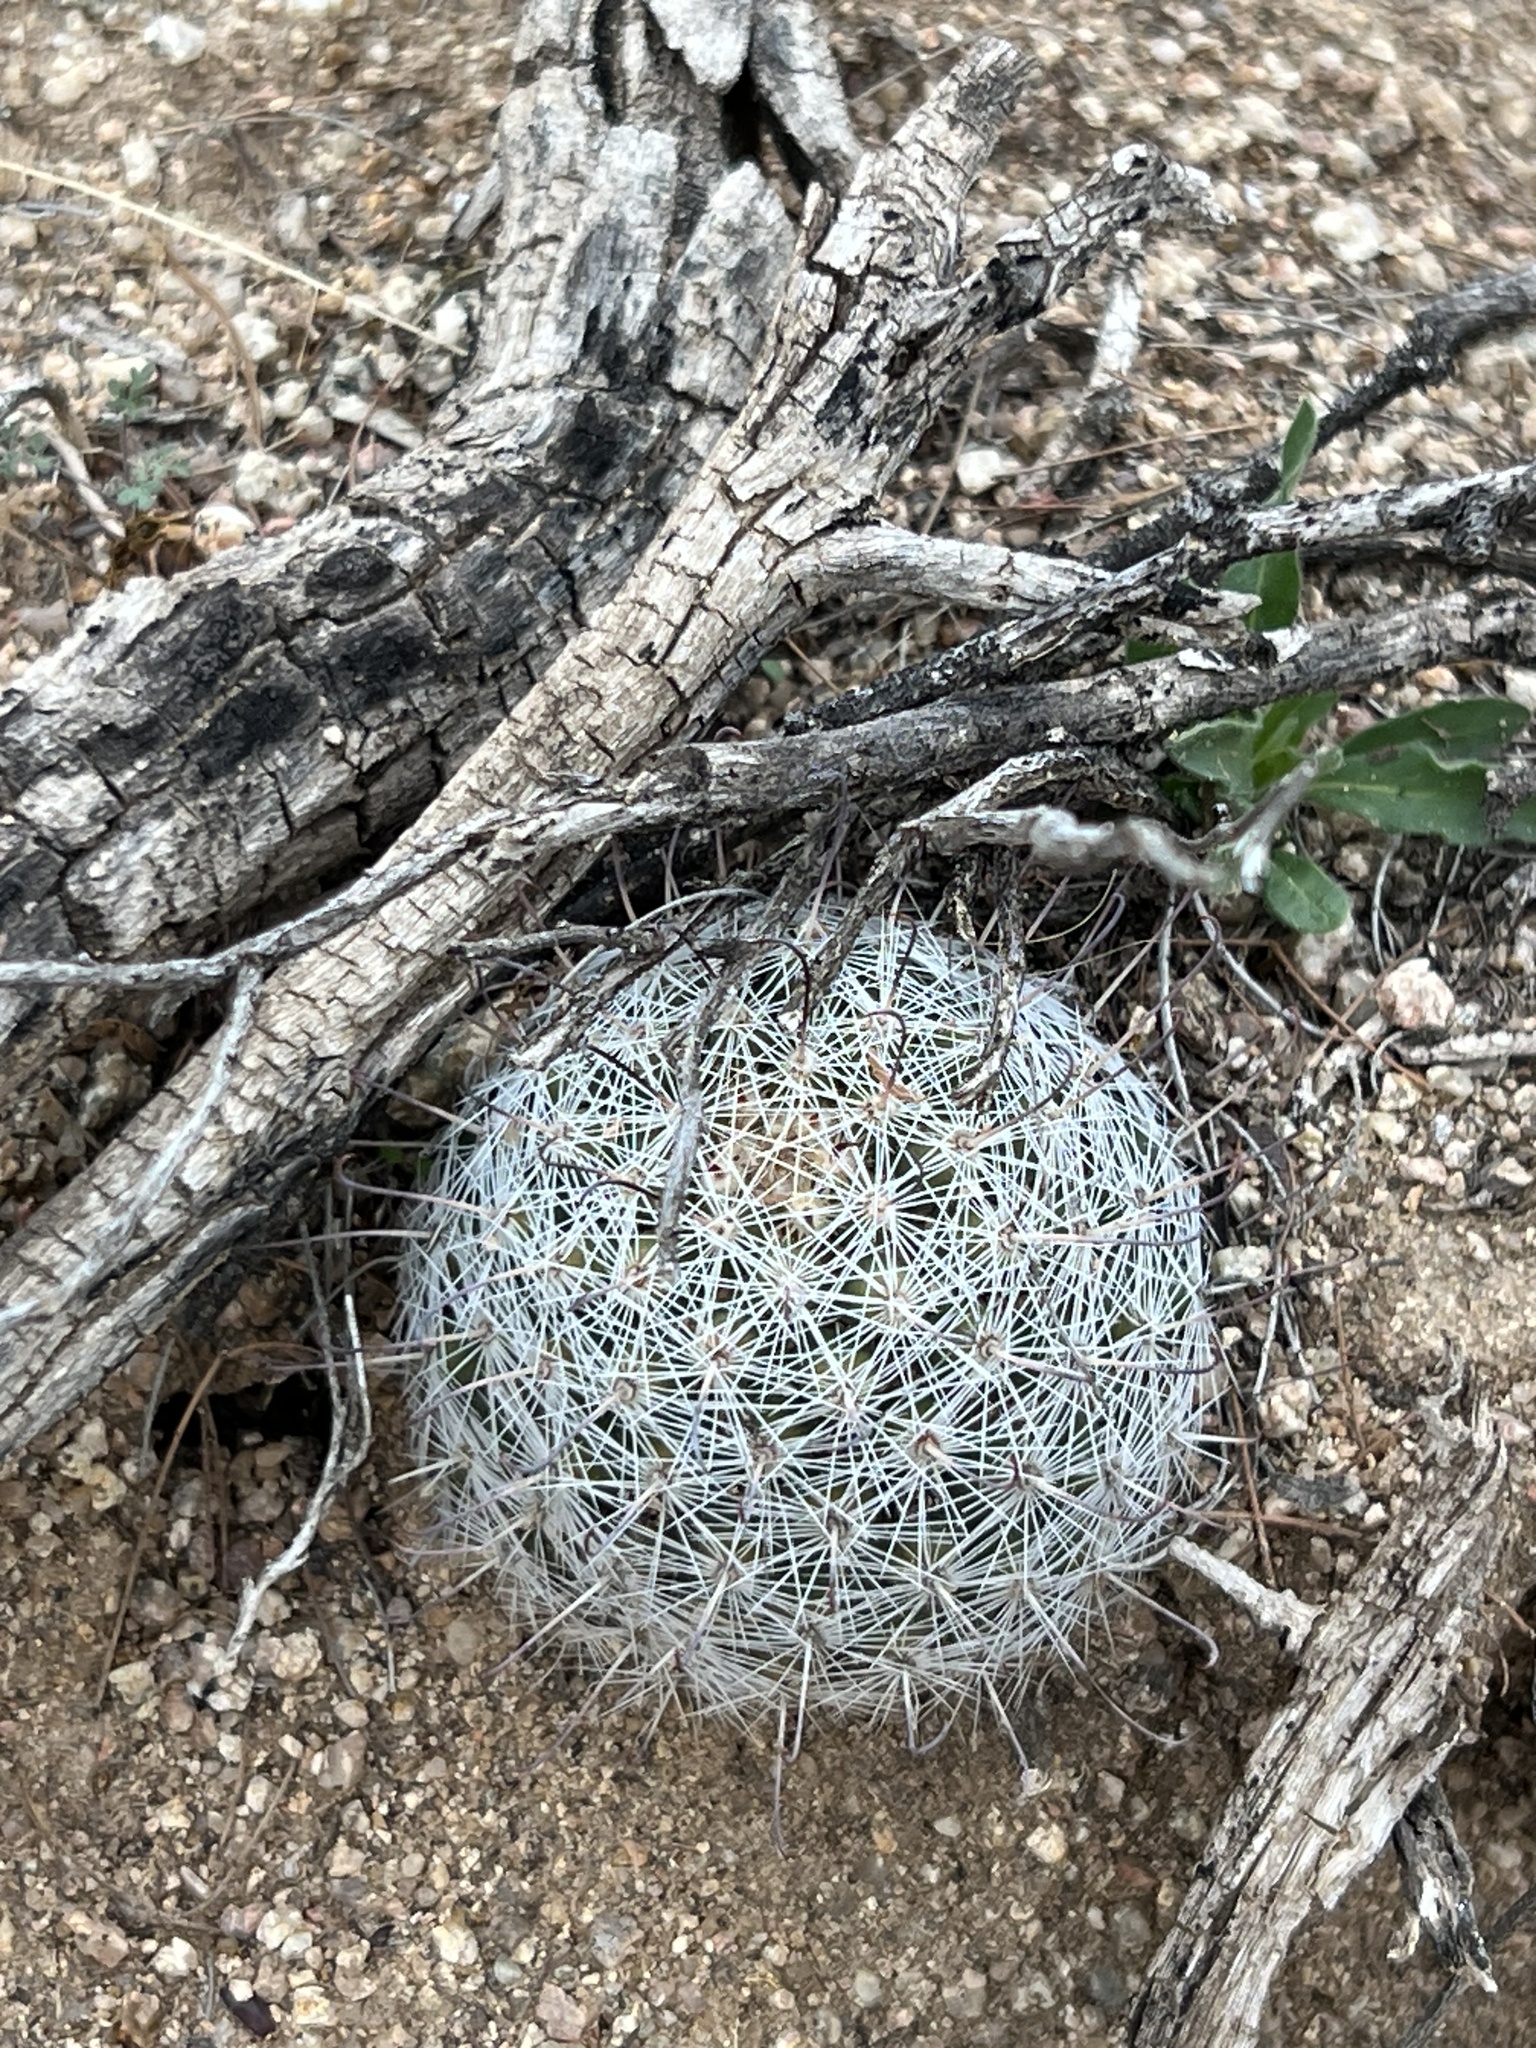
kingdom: Plantae
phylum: Tracheophyta
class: Magnoliopsida
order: Caryophyllales
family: Cactaceae
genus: Cochemiea
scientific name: Cochemiea grahamii
